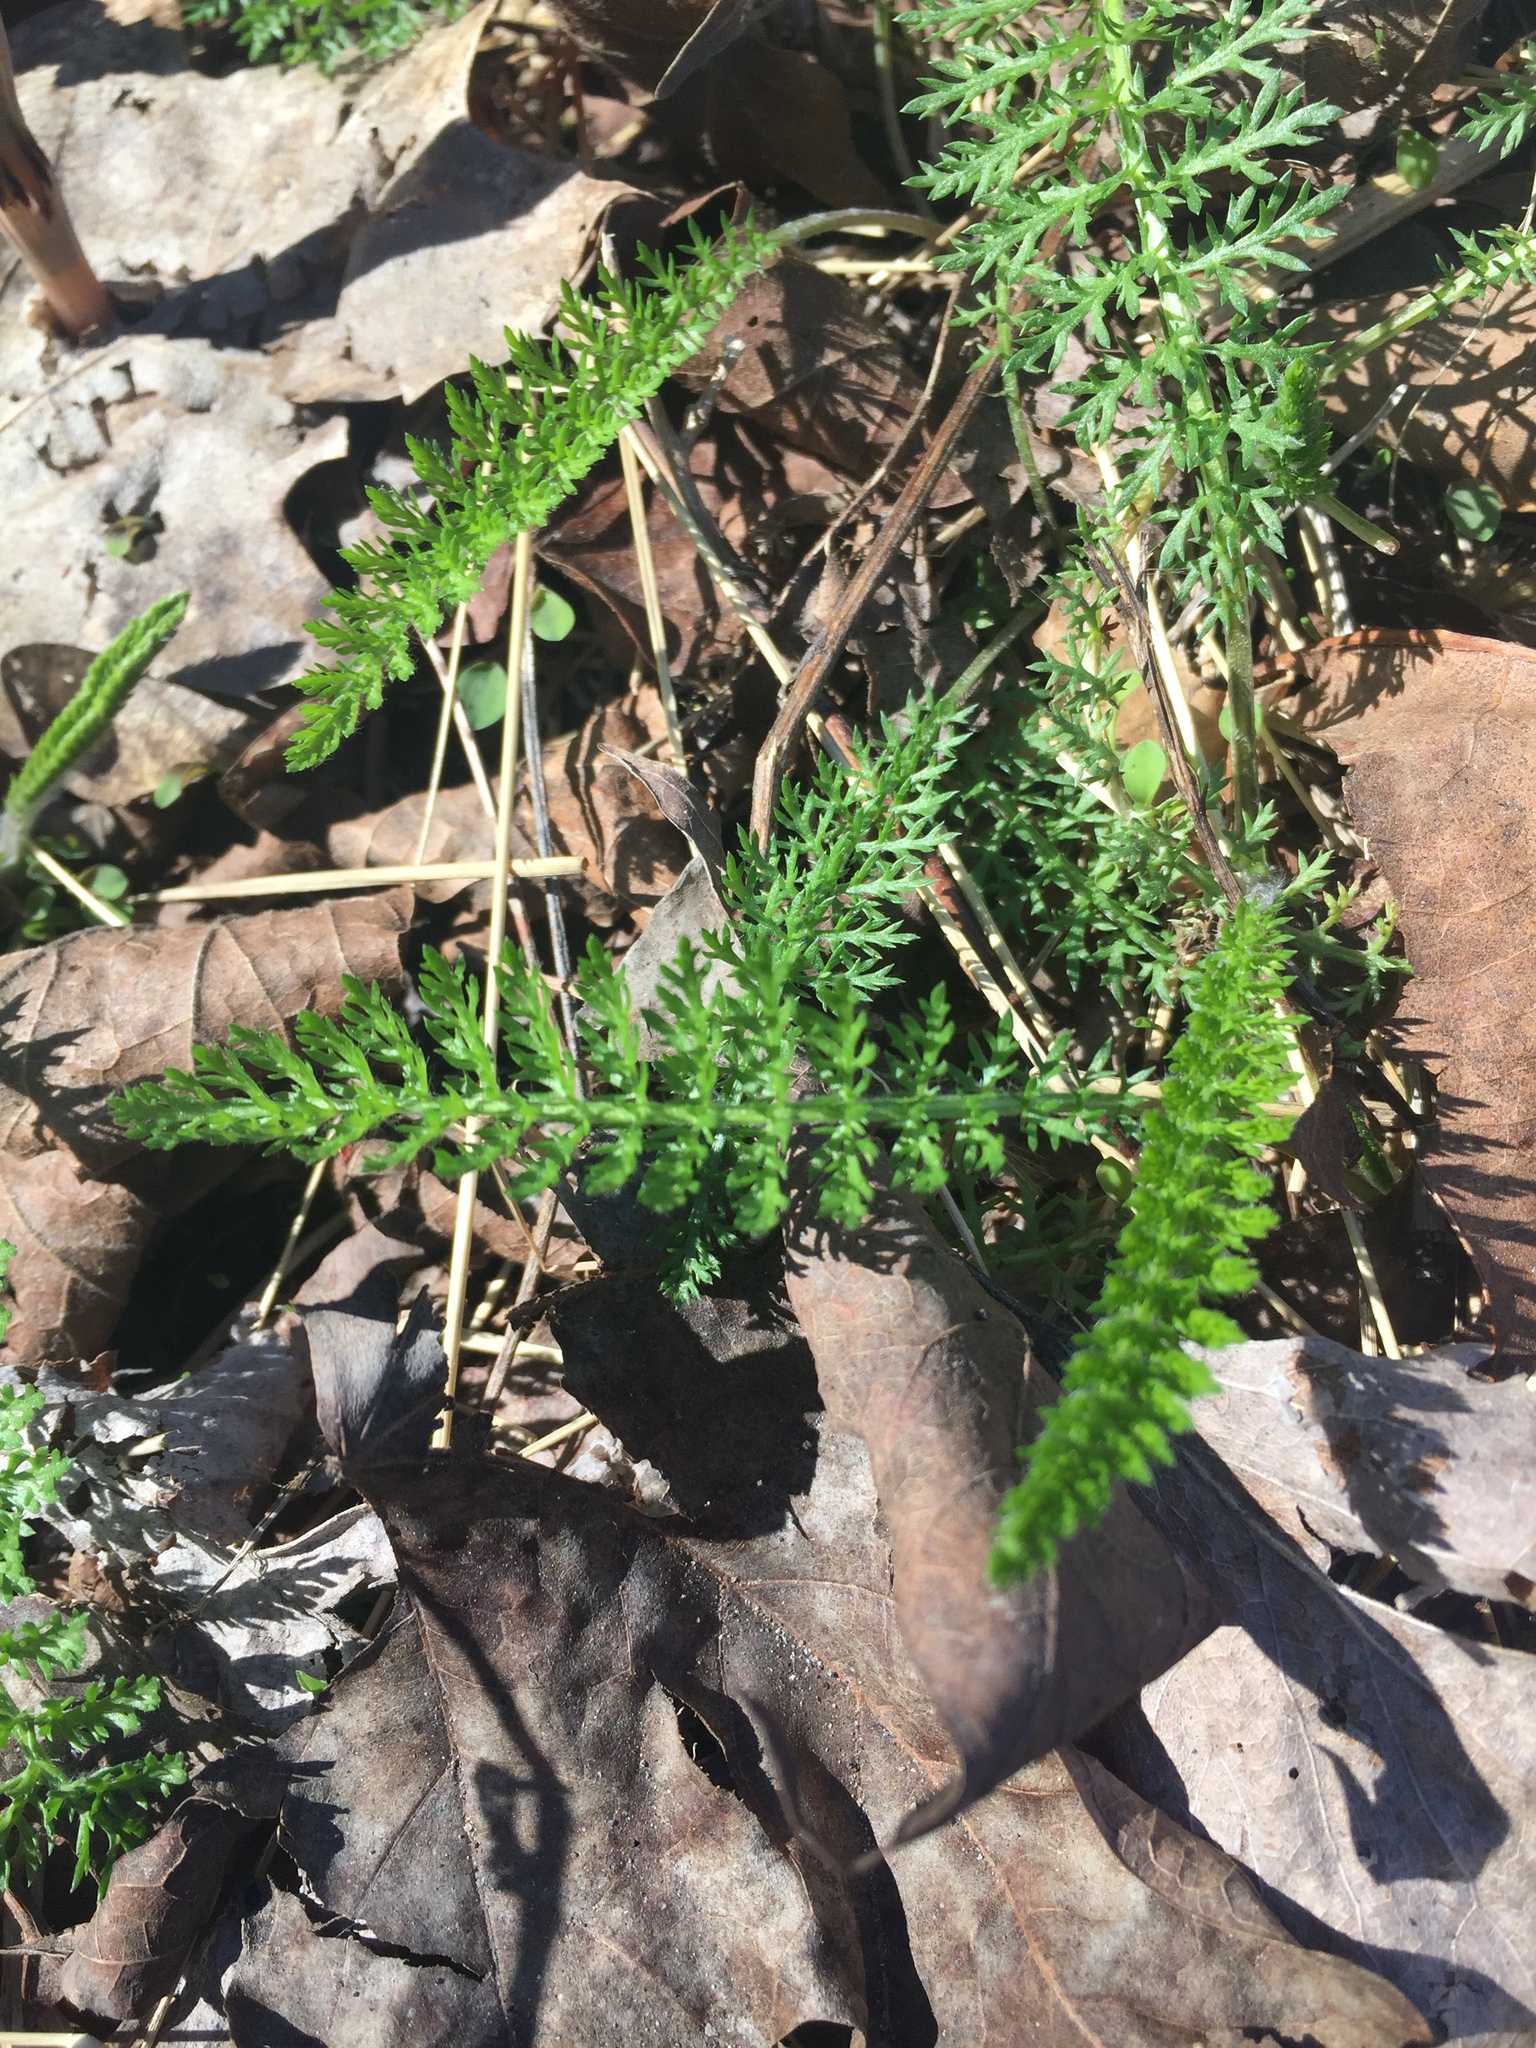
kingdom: Plantae
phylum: Tracheophyta
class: Magnoliopsida
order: Asterales
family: Asteraceae
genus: Achillea
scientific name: Achillea millefolium
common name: Yarrow
